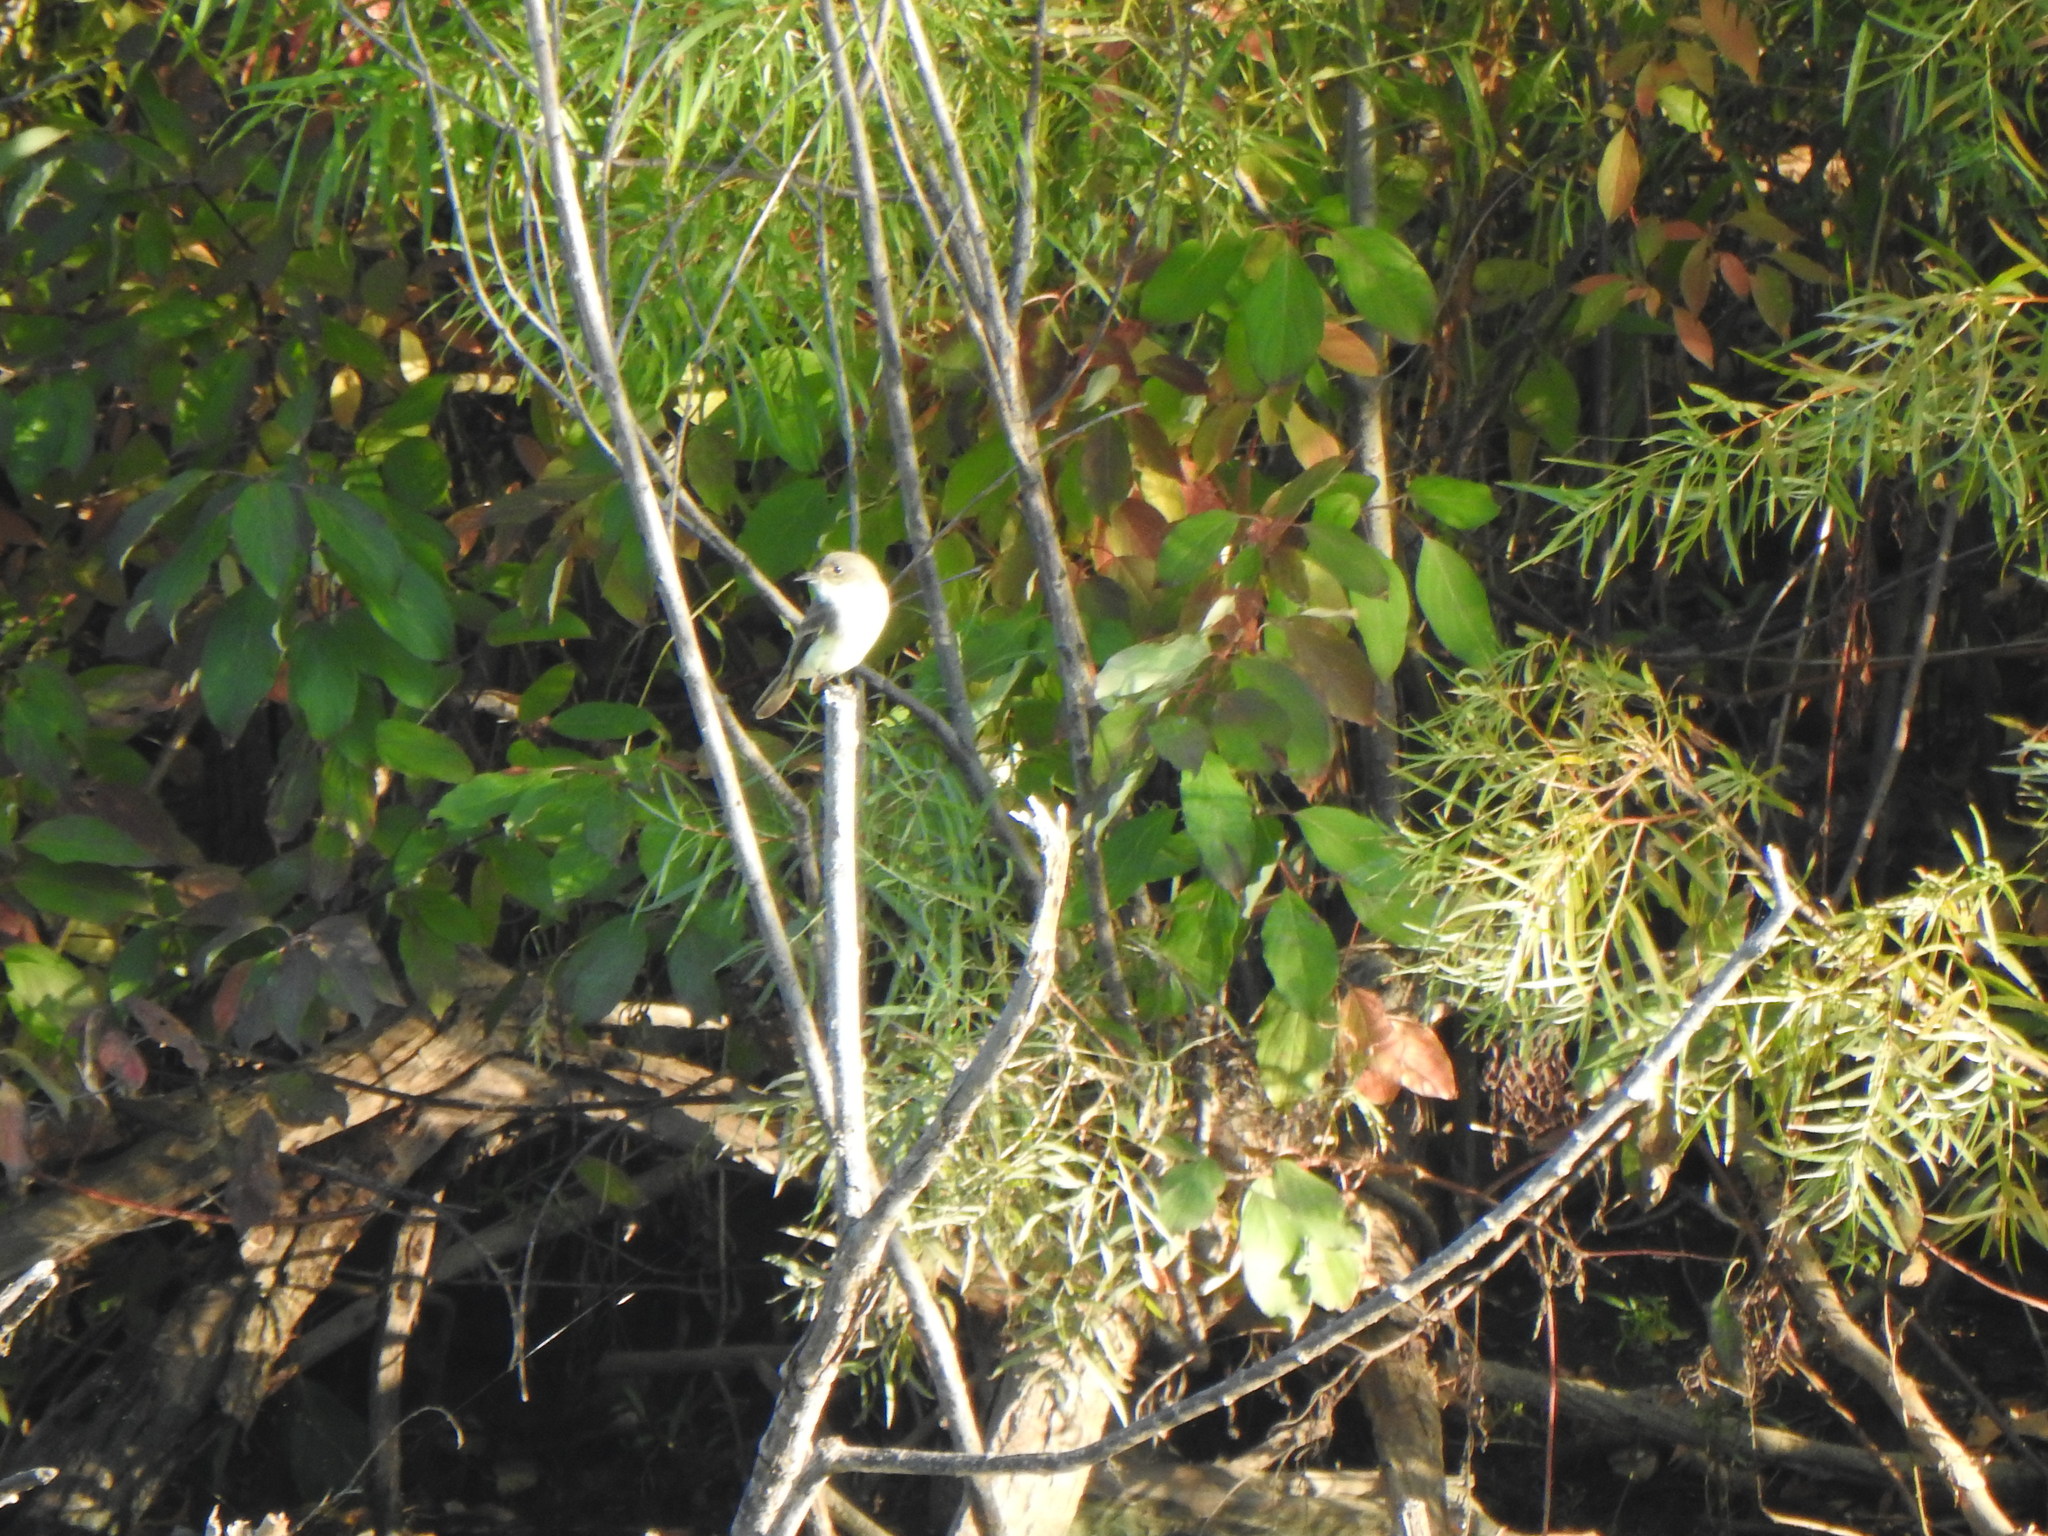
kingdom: Animalia
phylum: Chordata
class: Aves
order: Passeriformes
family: Tyrannidae
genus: Sayornis
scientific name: Sayornis phoebe
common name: Eastern phoebe
